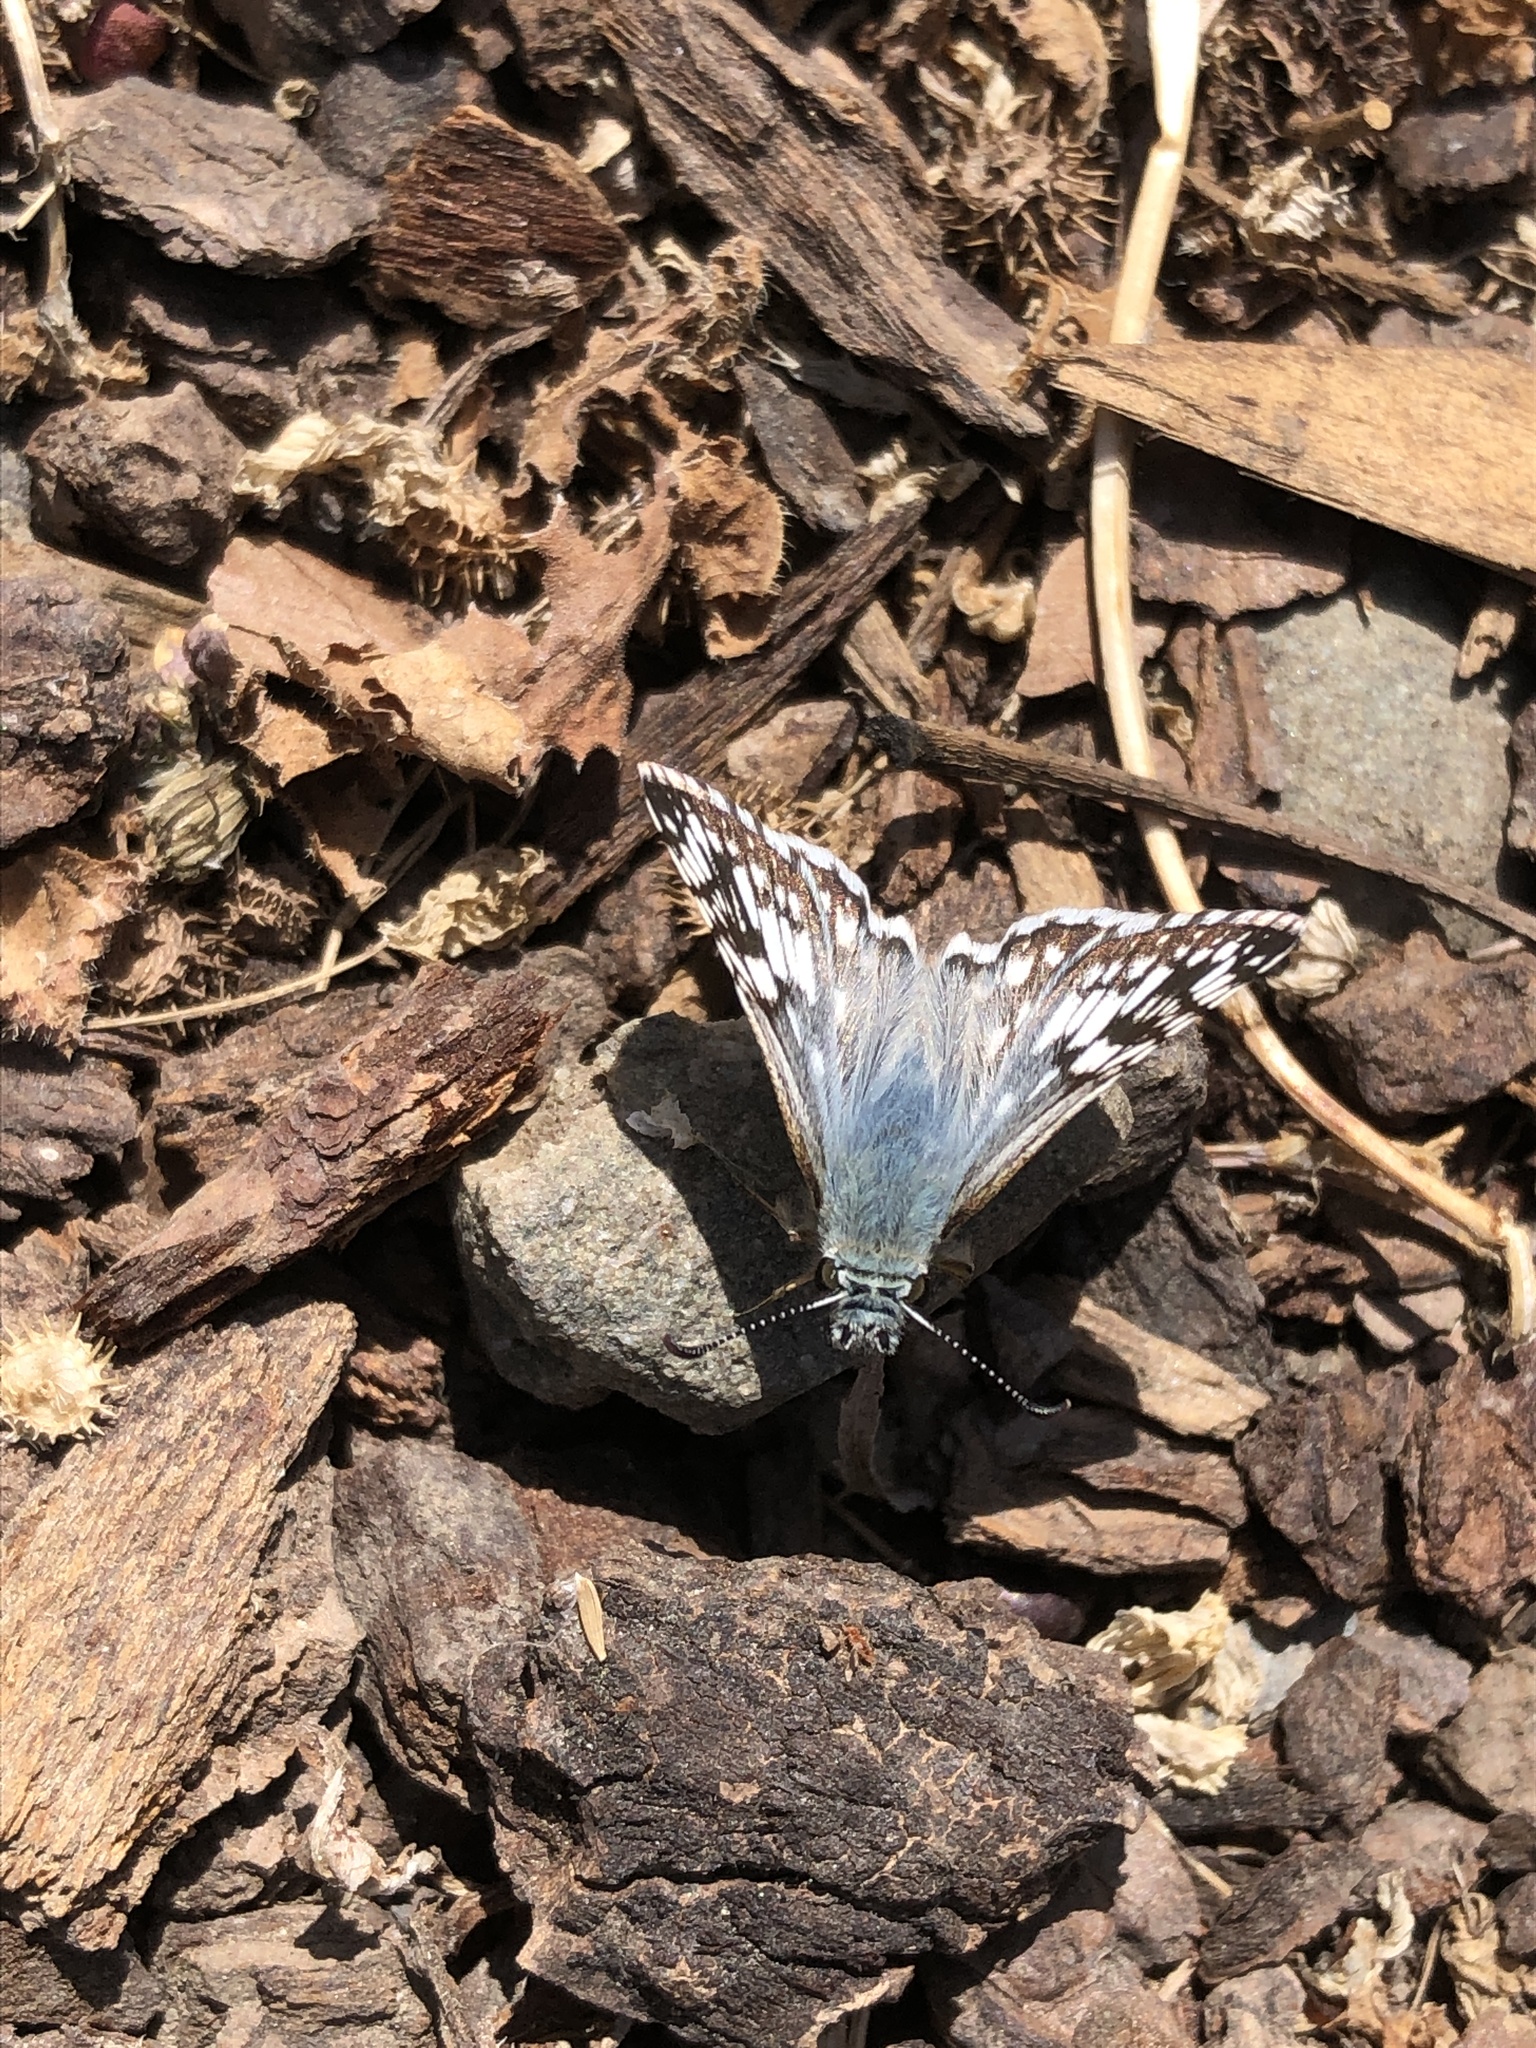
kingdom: Animalia
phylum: Arthropoda
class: Insecta
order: Lepidoptera
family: Hesperiidae
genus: Burnsius
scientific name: Burnsius communis
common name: Common checkered-skipper
